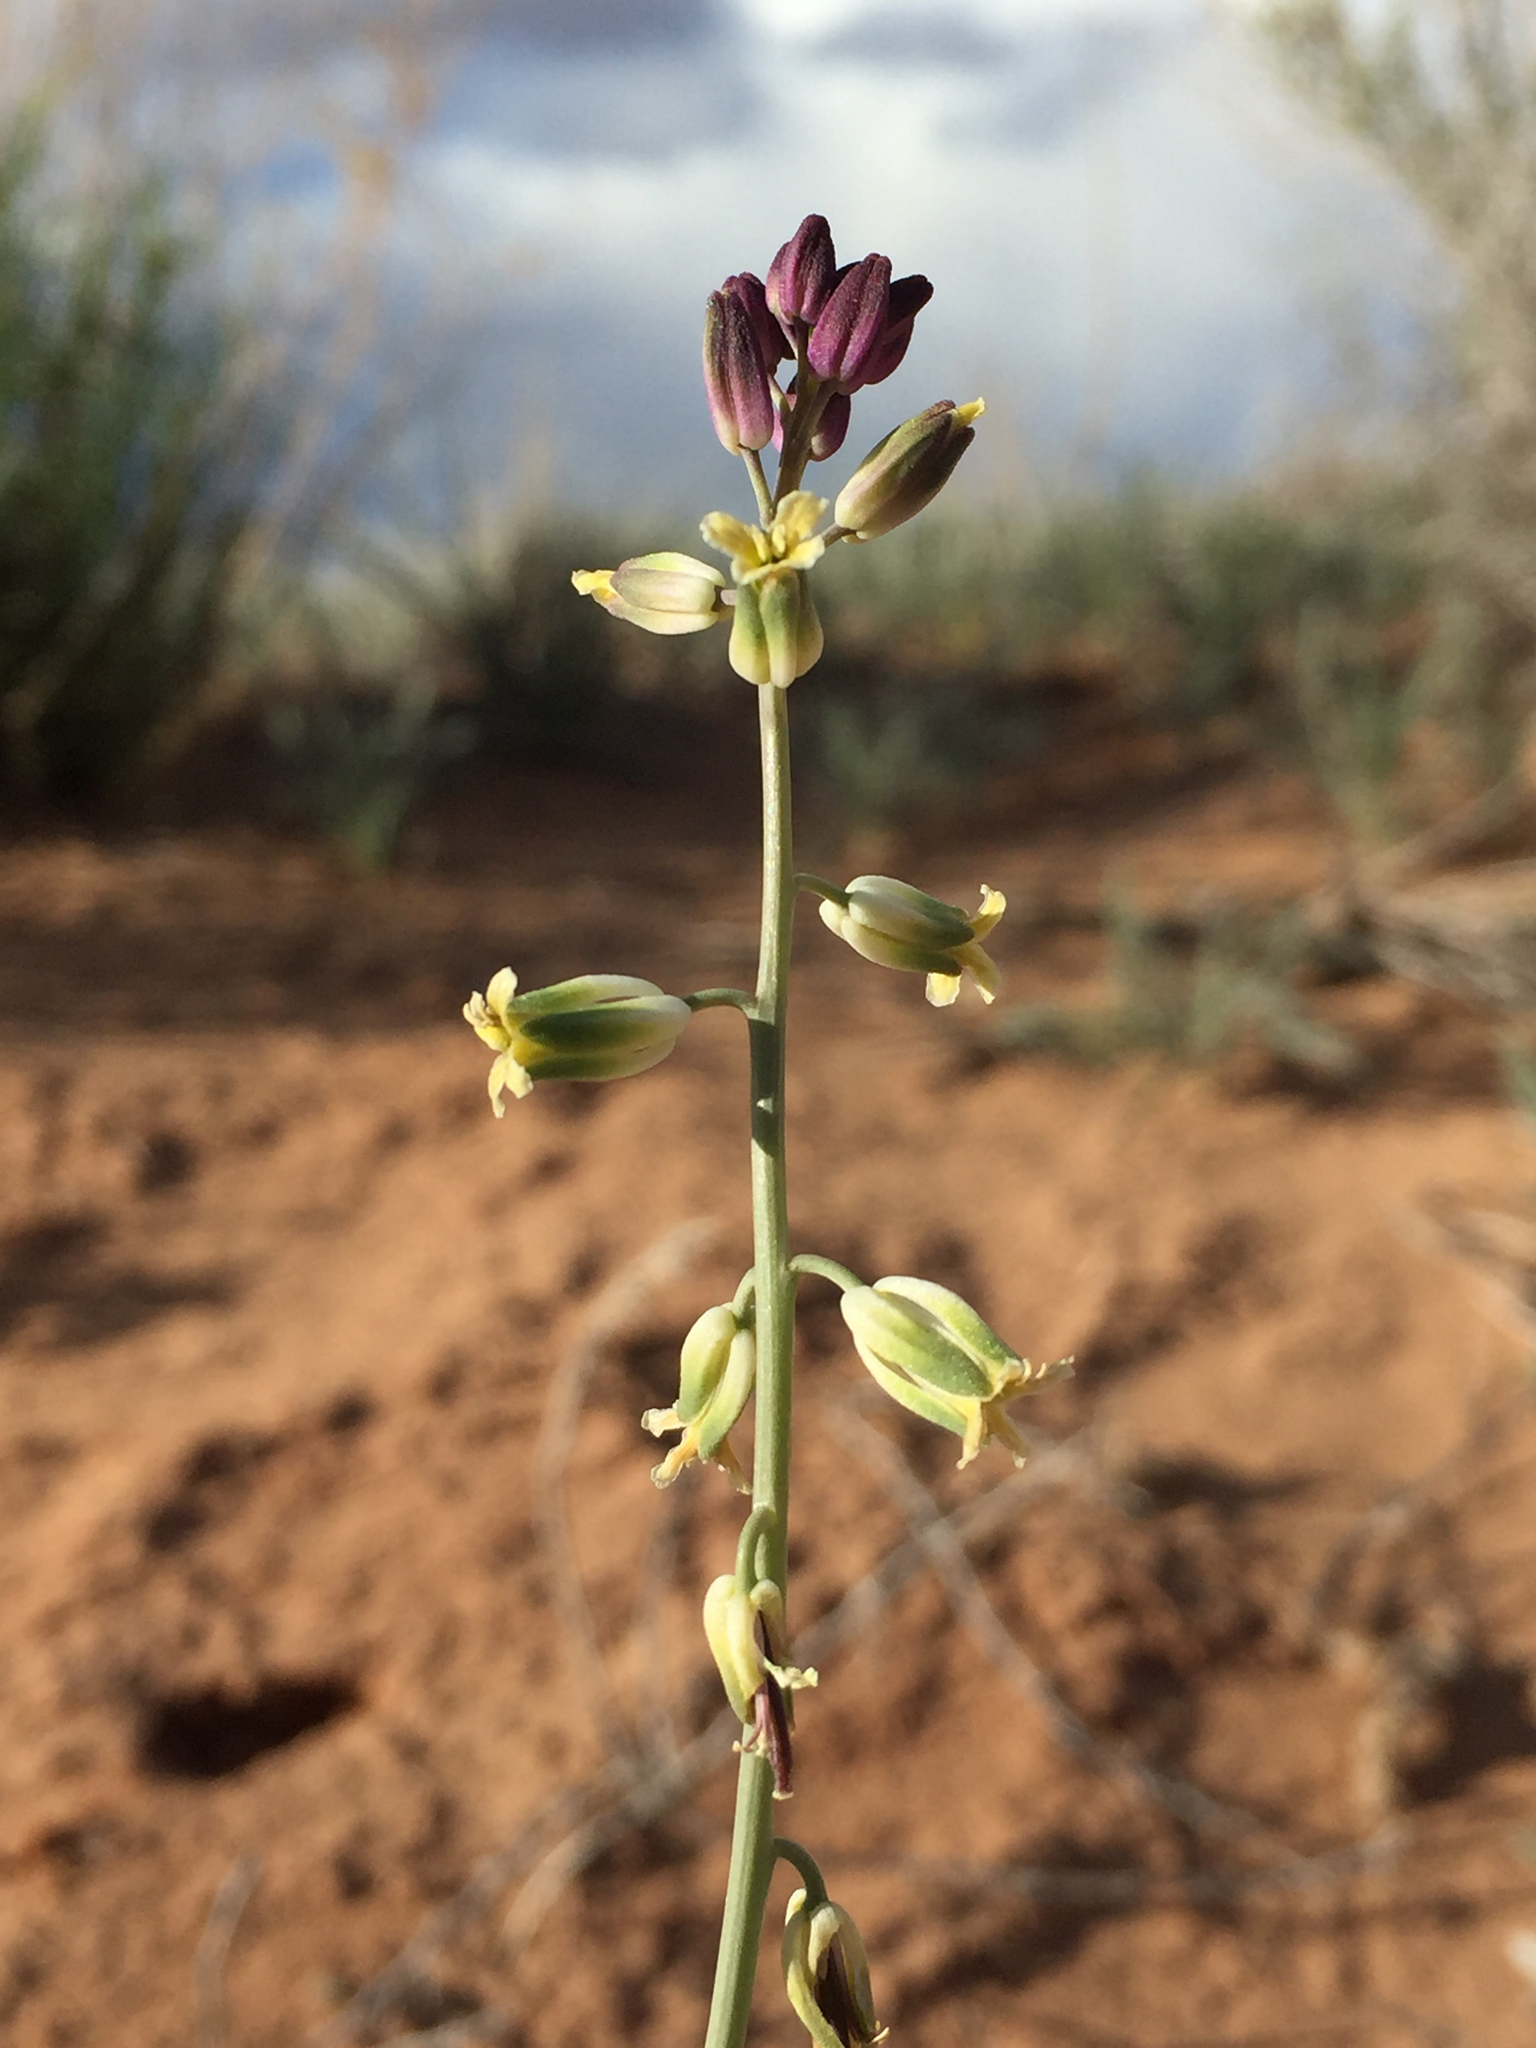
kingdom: Plantae
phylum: Tracheophyta
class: Magnoliopsida
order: Brassicales
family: Brassicaceae
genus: Streptanthus
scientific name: Streptanthus longirostris
